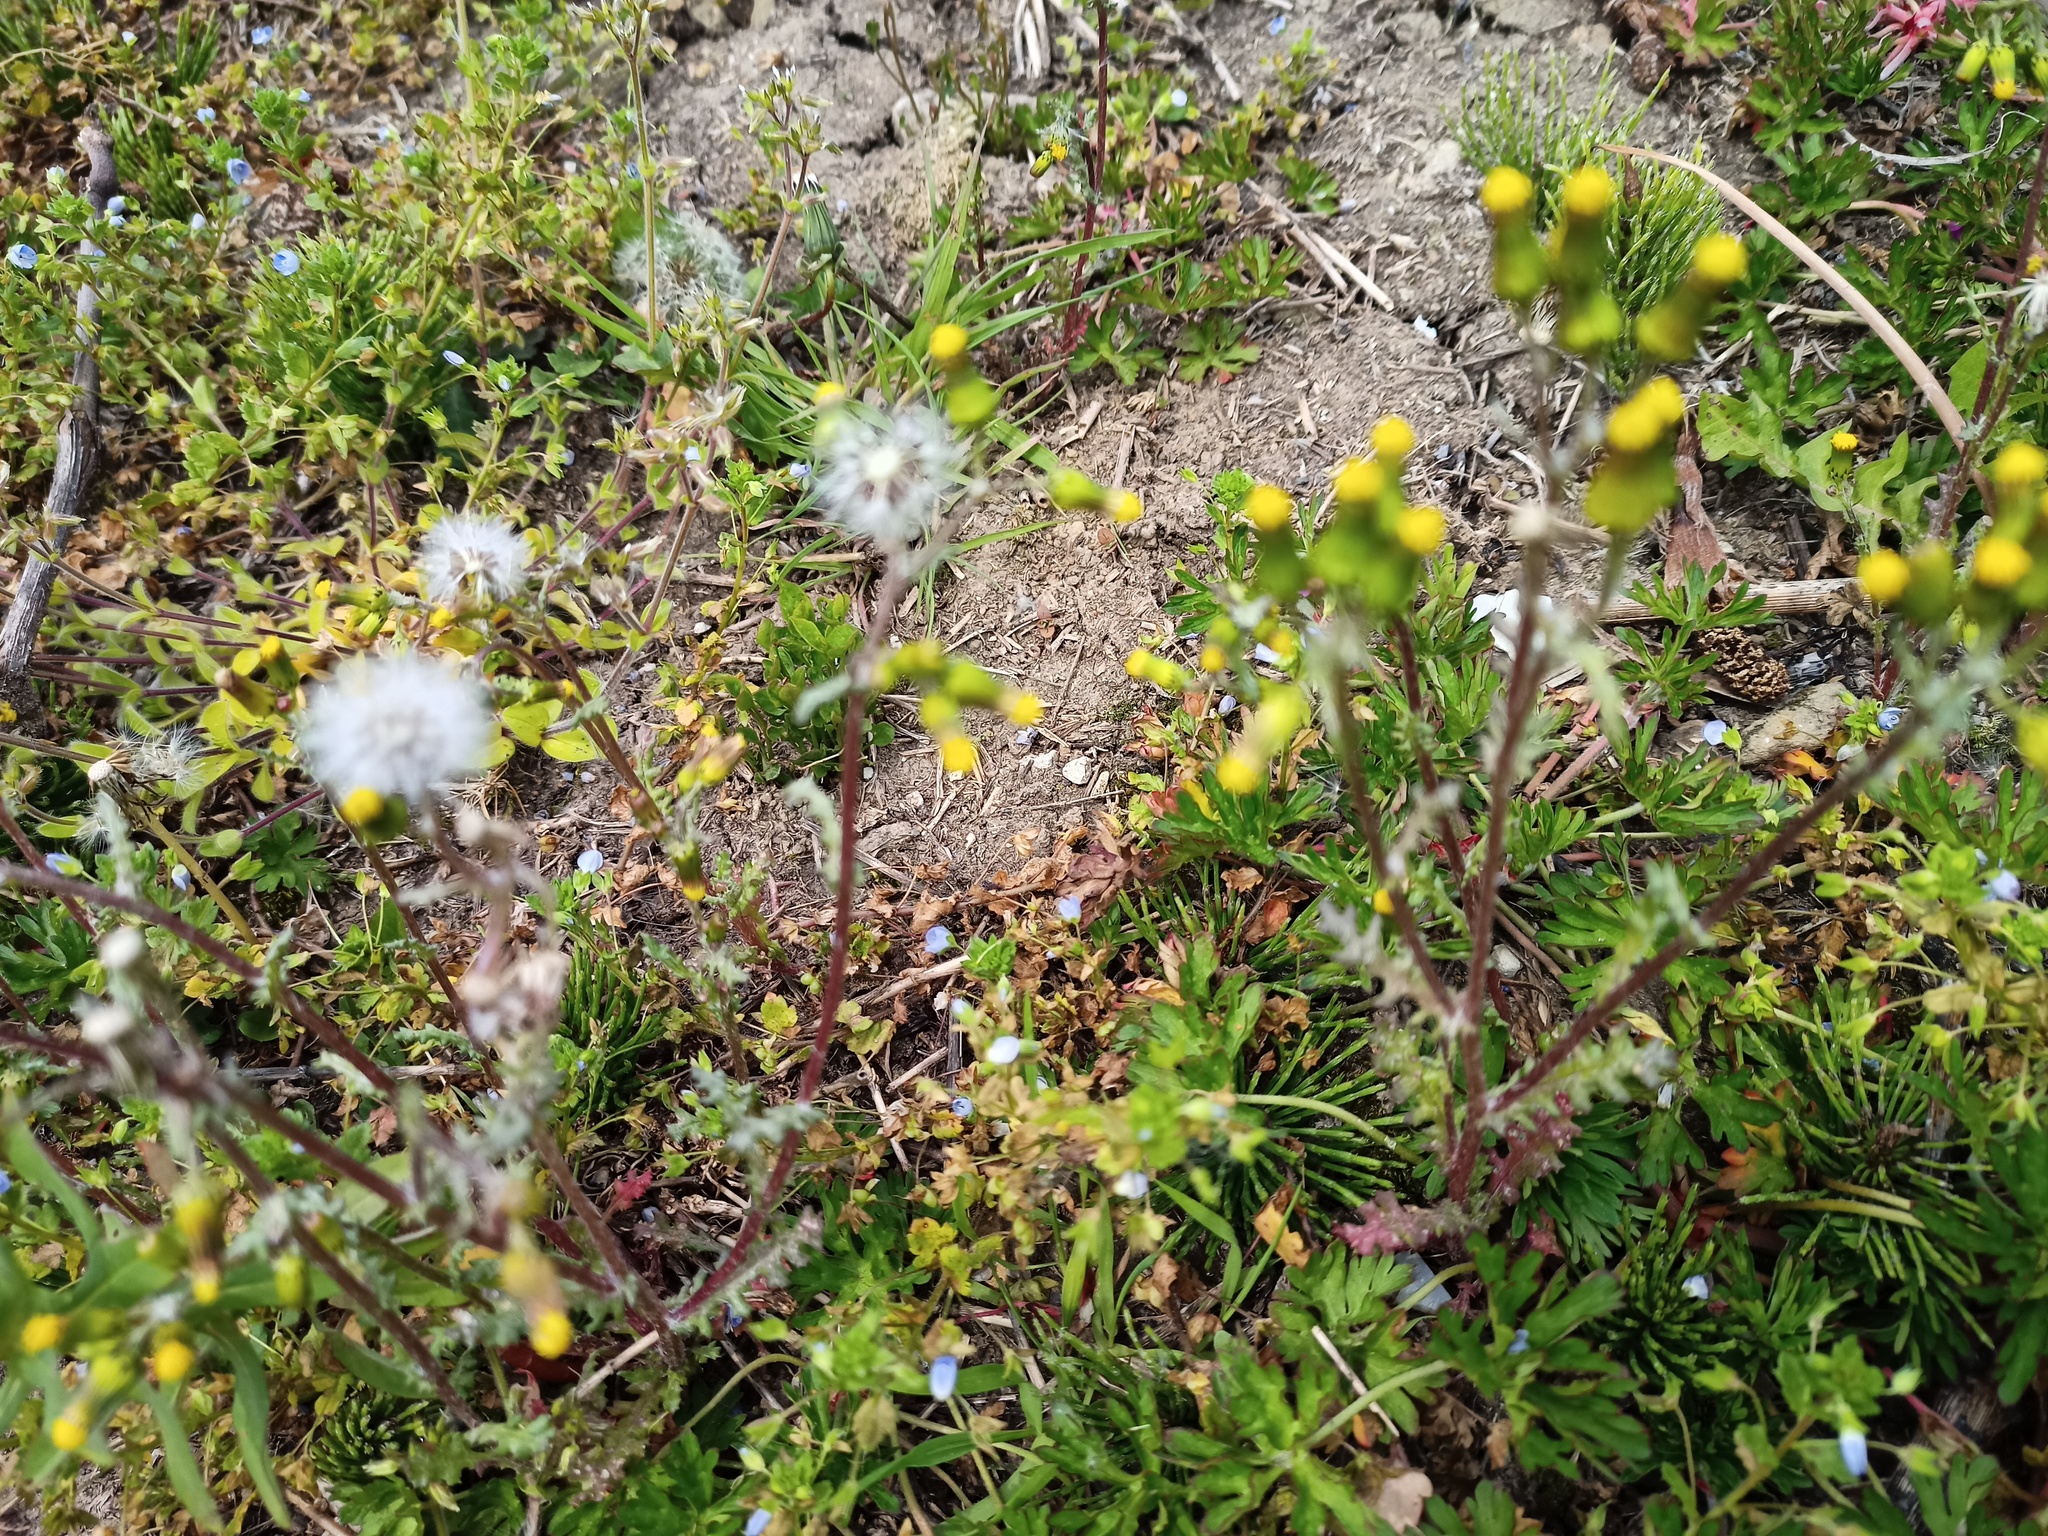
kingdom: Plantae
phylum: Tracheophyta
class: Magnoliopsida
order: Asterales
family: Asteraceae
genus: Senecio
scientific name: Senecio vulgaris
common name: Old-man-in-the-spring
